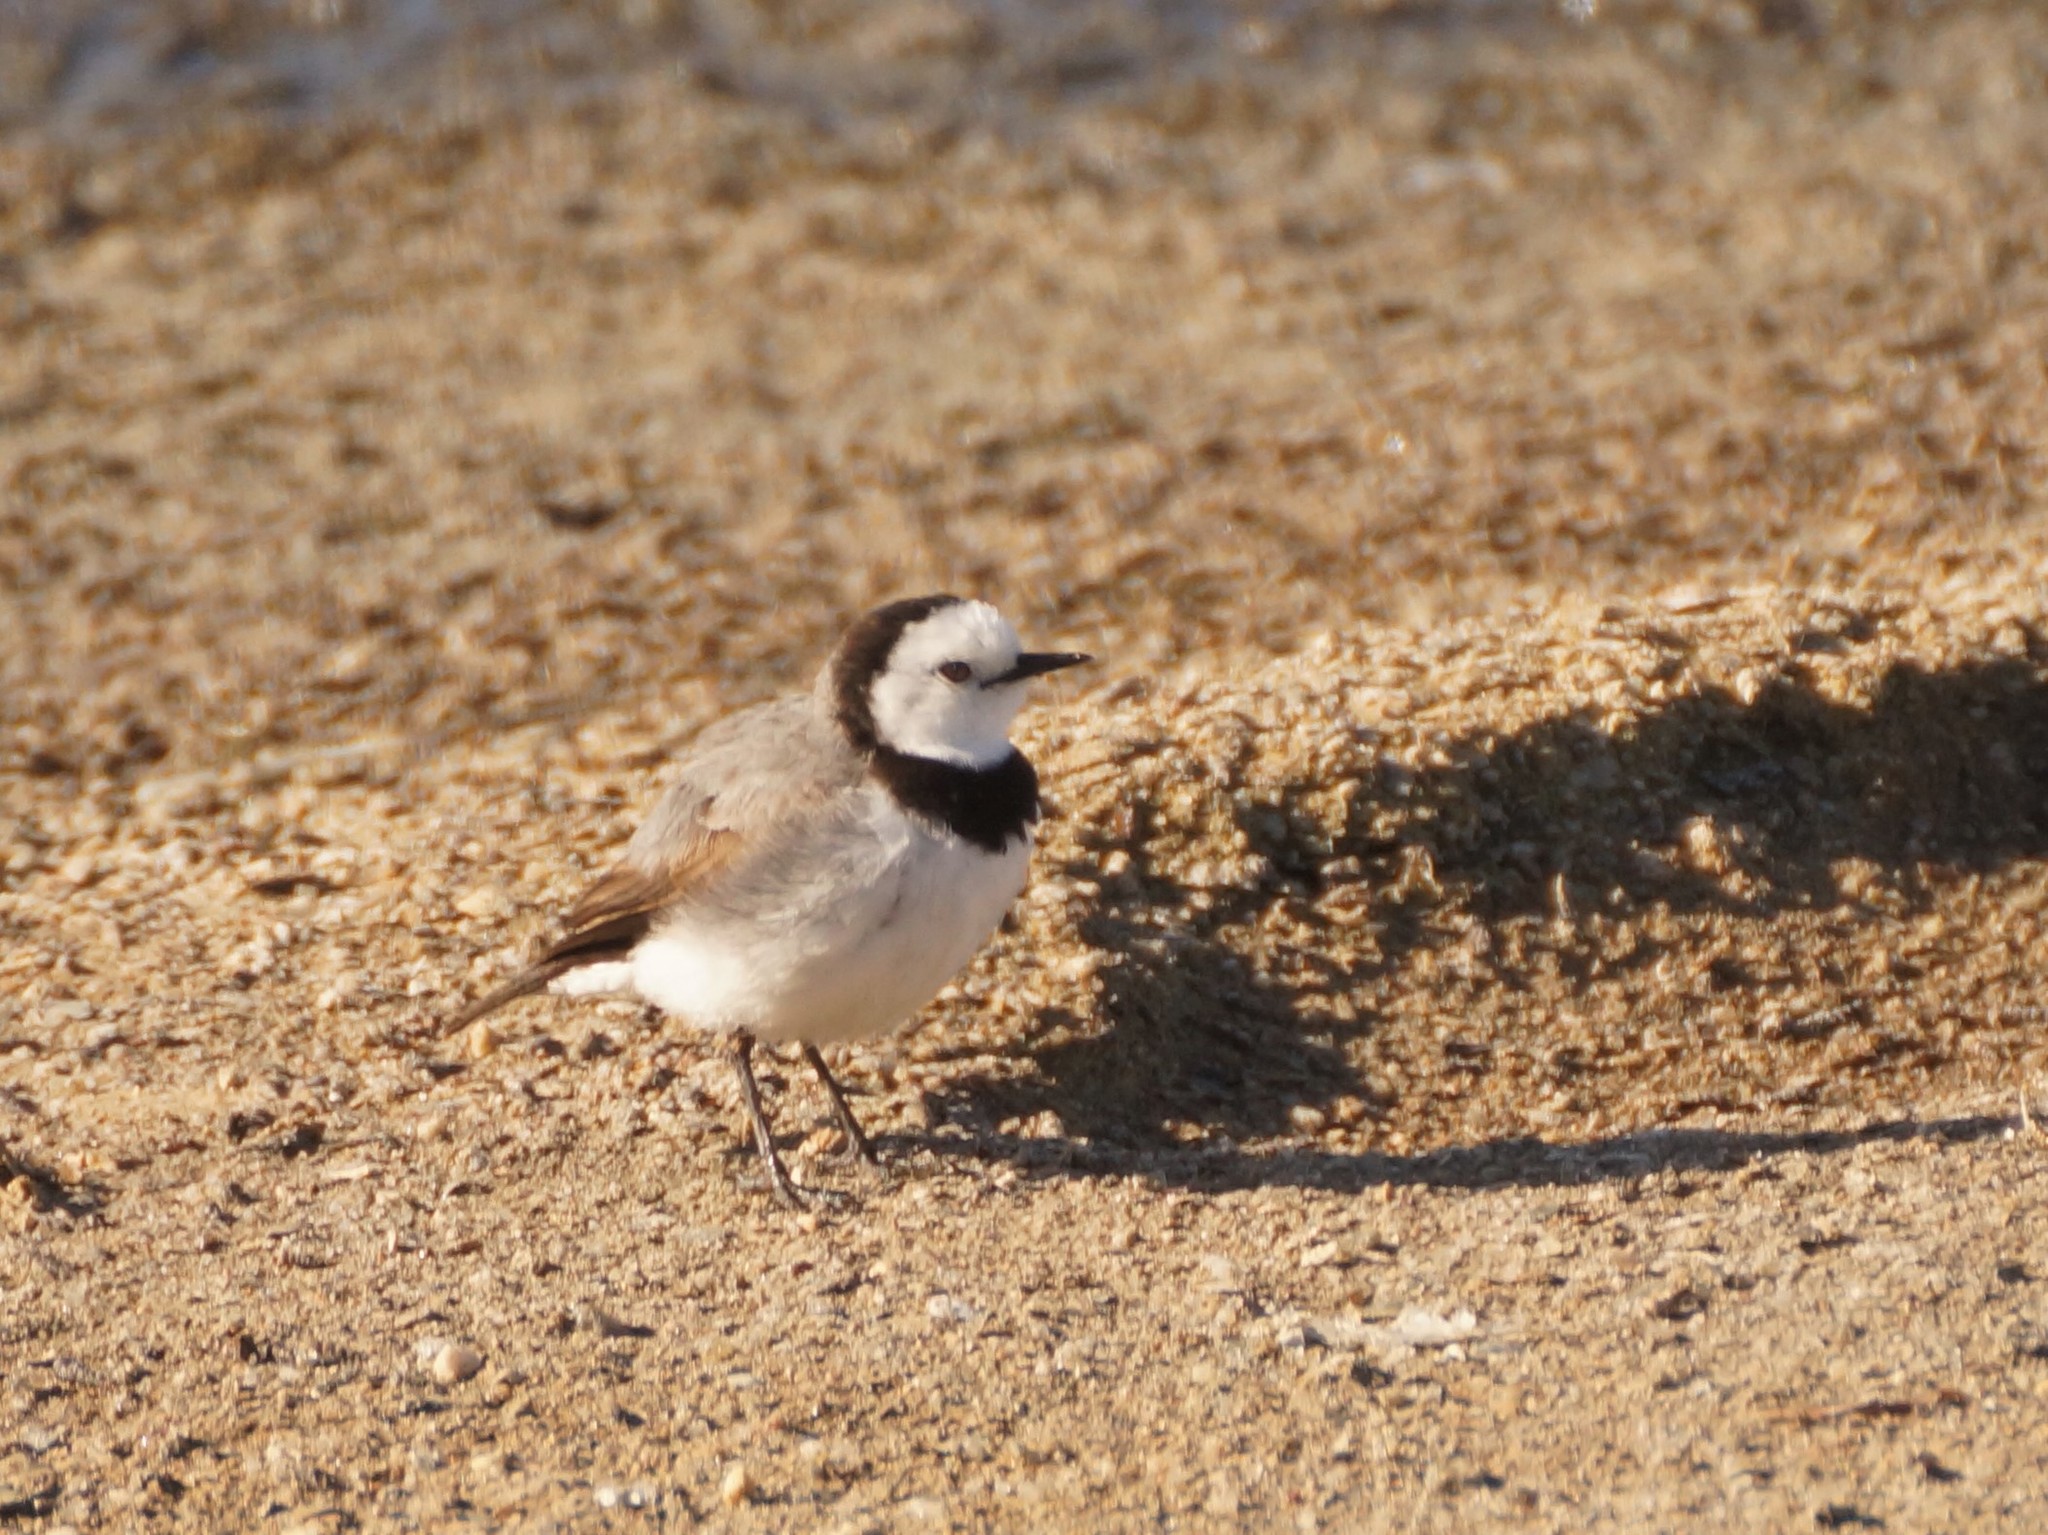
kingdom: Animalia
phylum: Chordata
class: Aves
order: Passeriformes
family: Meliphagidae
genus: Epthianura
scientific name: Epthianura albifrons
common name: White-fronted chat
